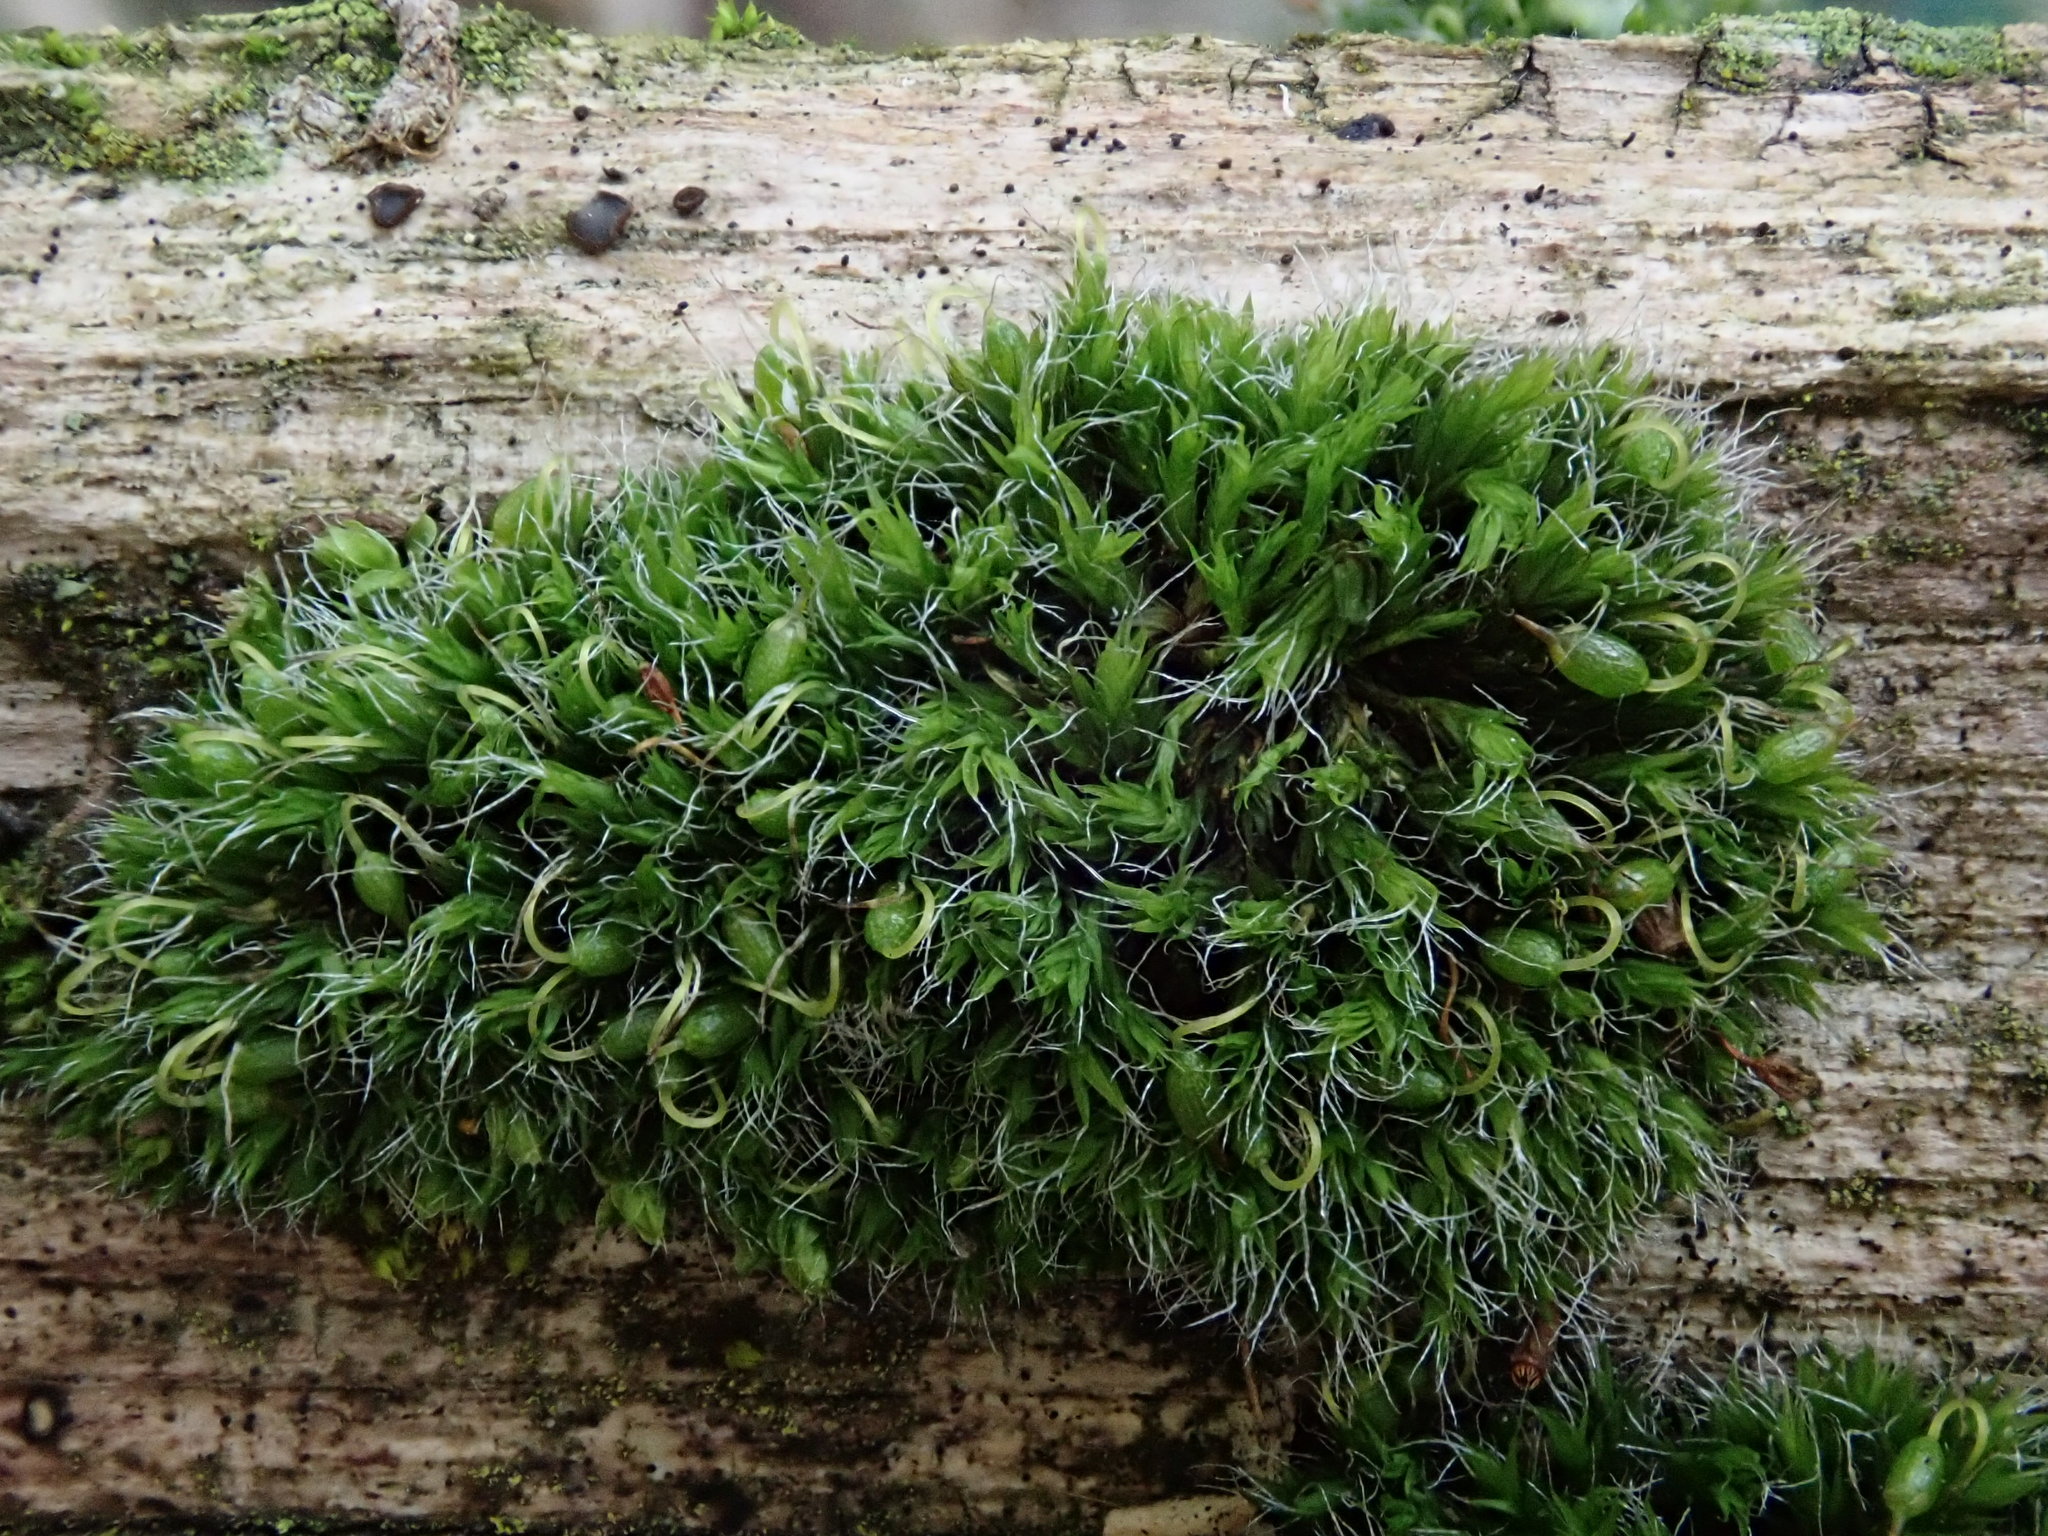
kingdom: Plantae
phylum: Bryophyta
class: Bryopsida
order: Grimmiales
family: Grimmiaceae
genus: Grimmia
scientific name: Grimmia pulvinata
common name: Grey-cushioned grimmia
